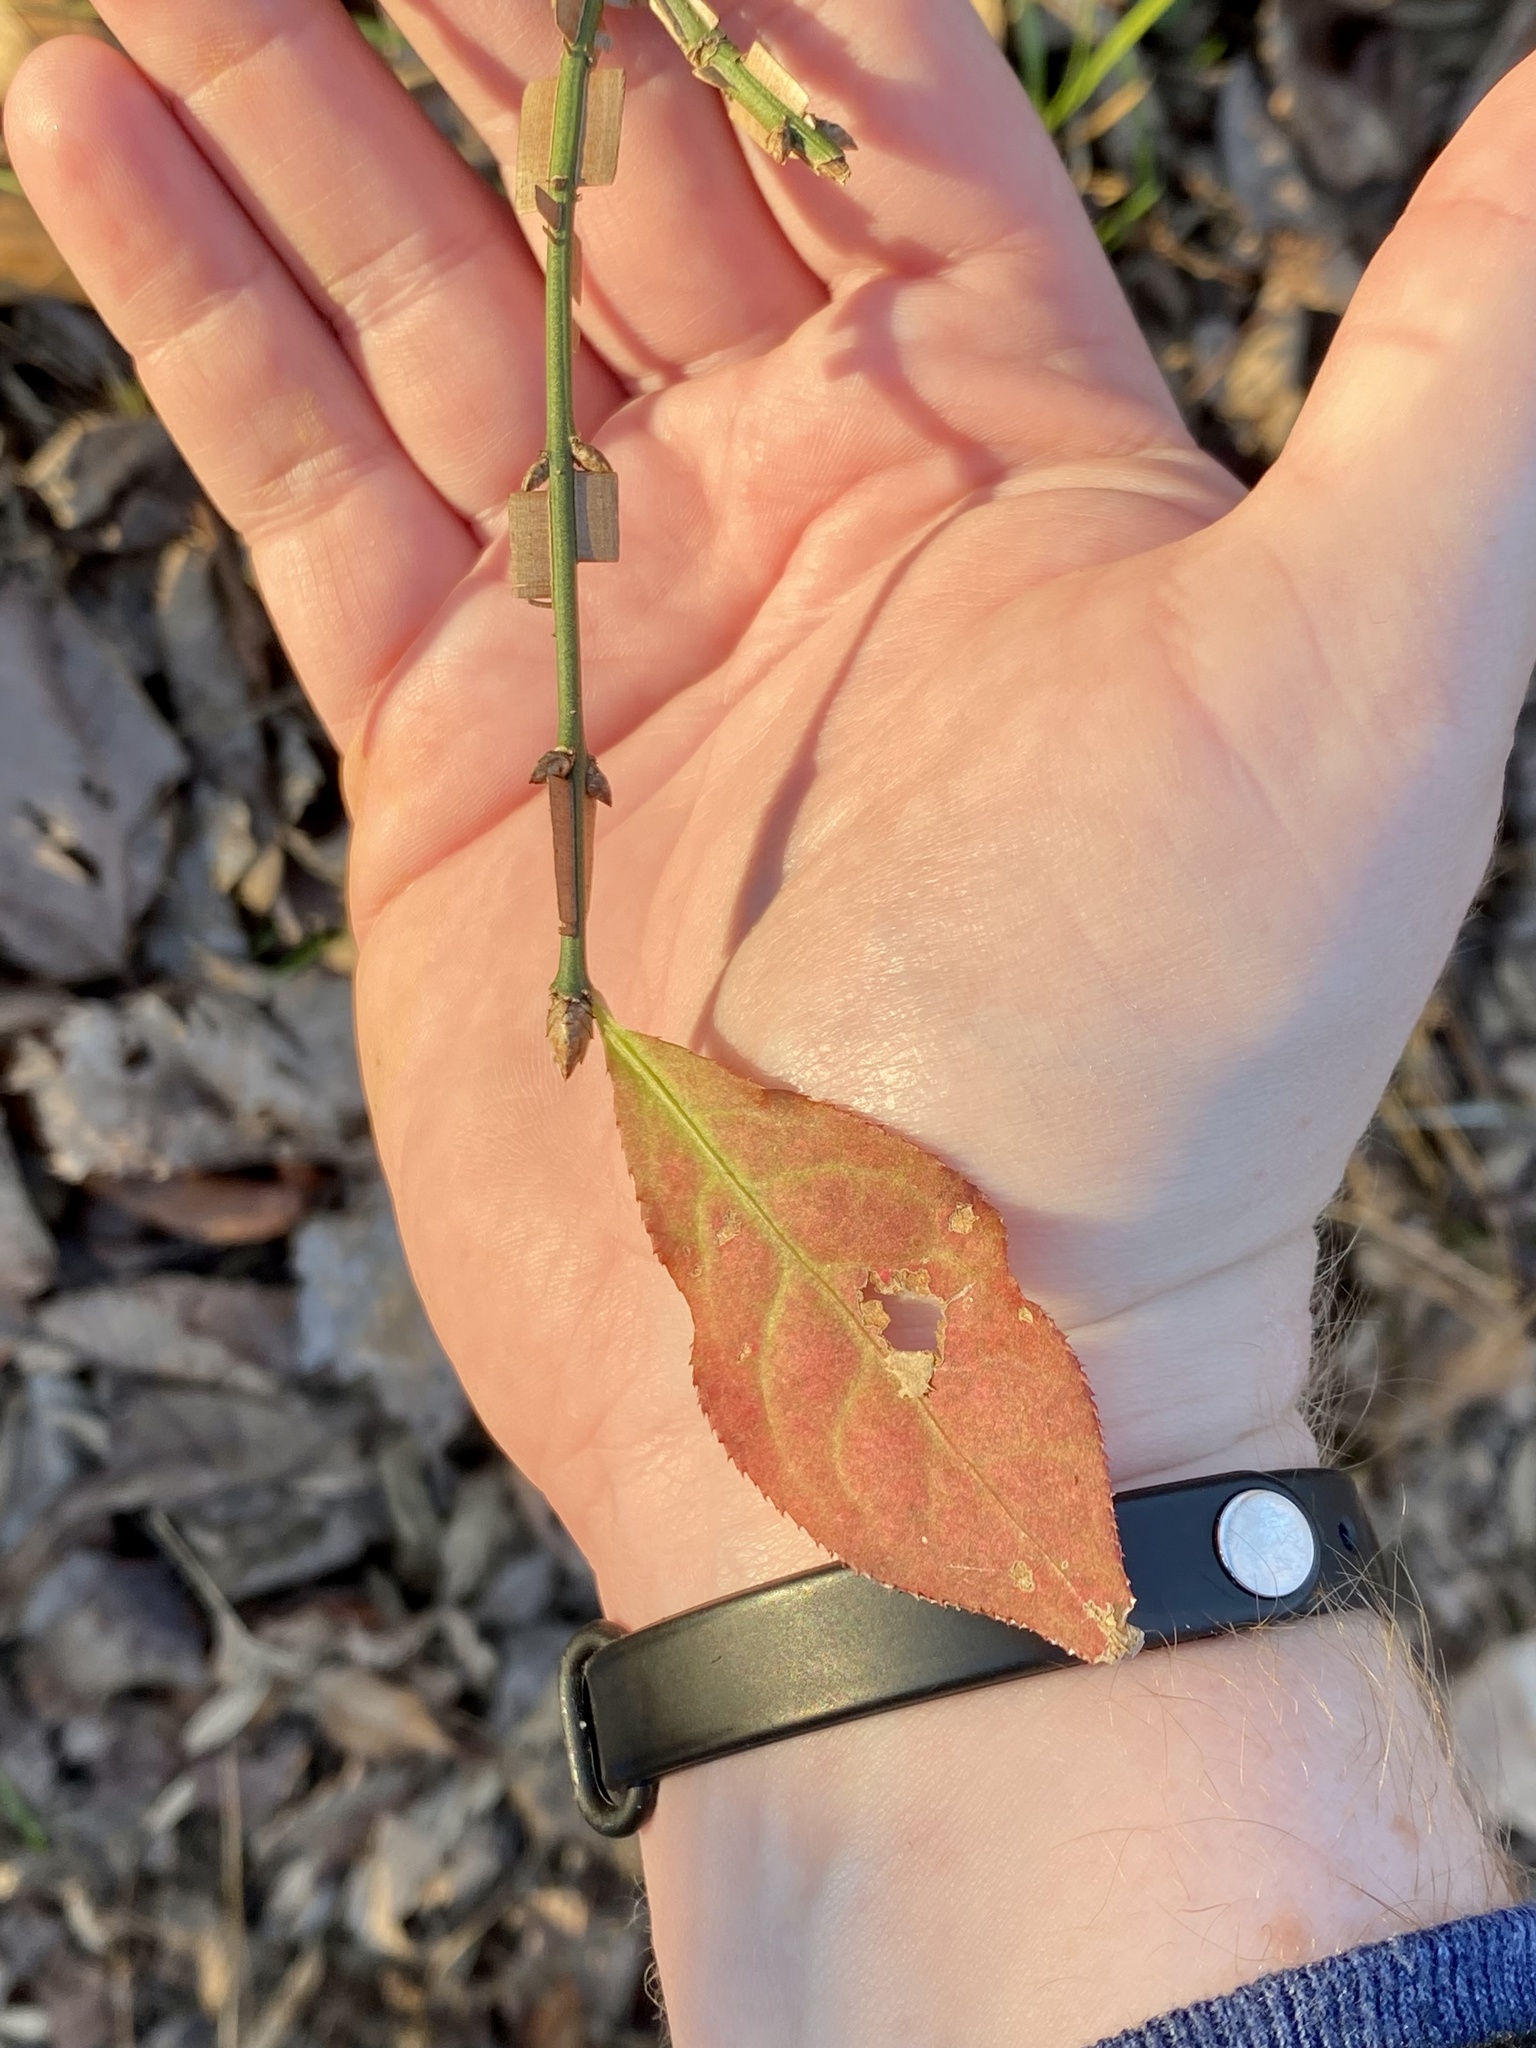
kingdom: Plantae
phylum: Tracheophyta
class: Magnoliopsida
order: Celastrales
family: Celastraceae
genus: Euonymus
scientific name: Euonymus alatus
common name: Winged euonymus
